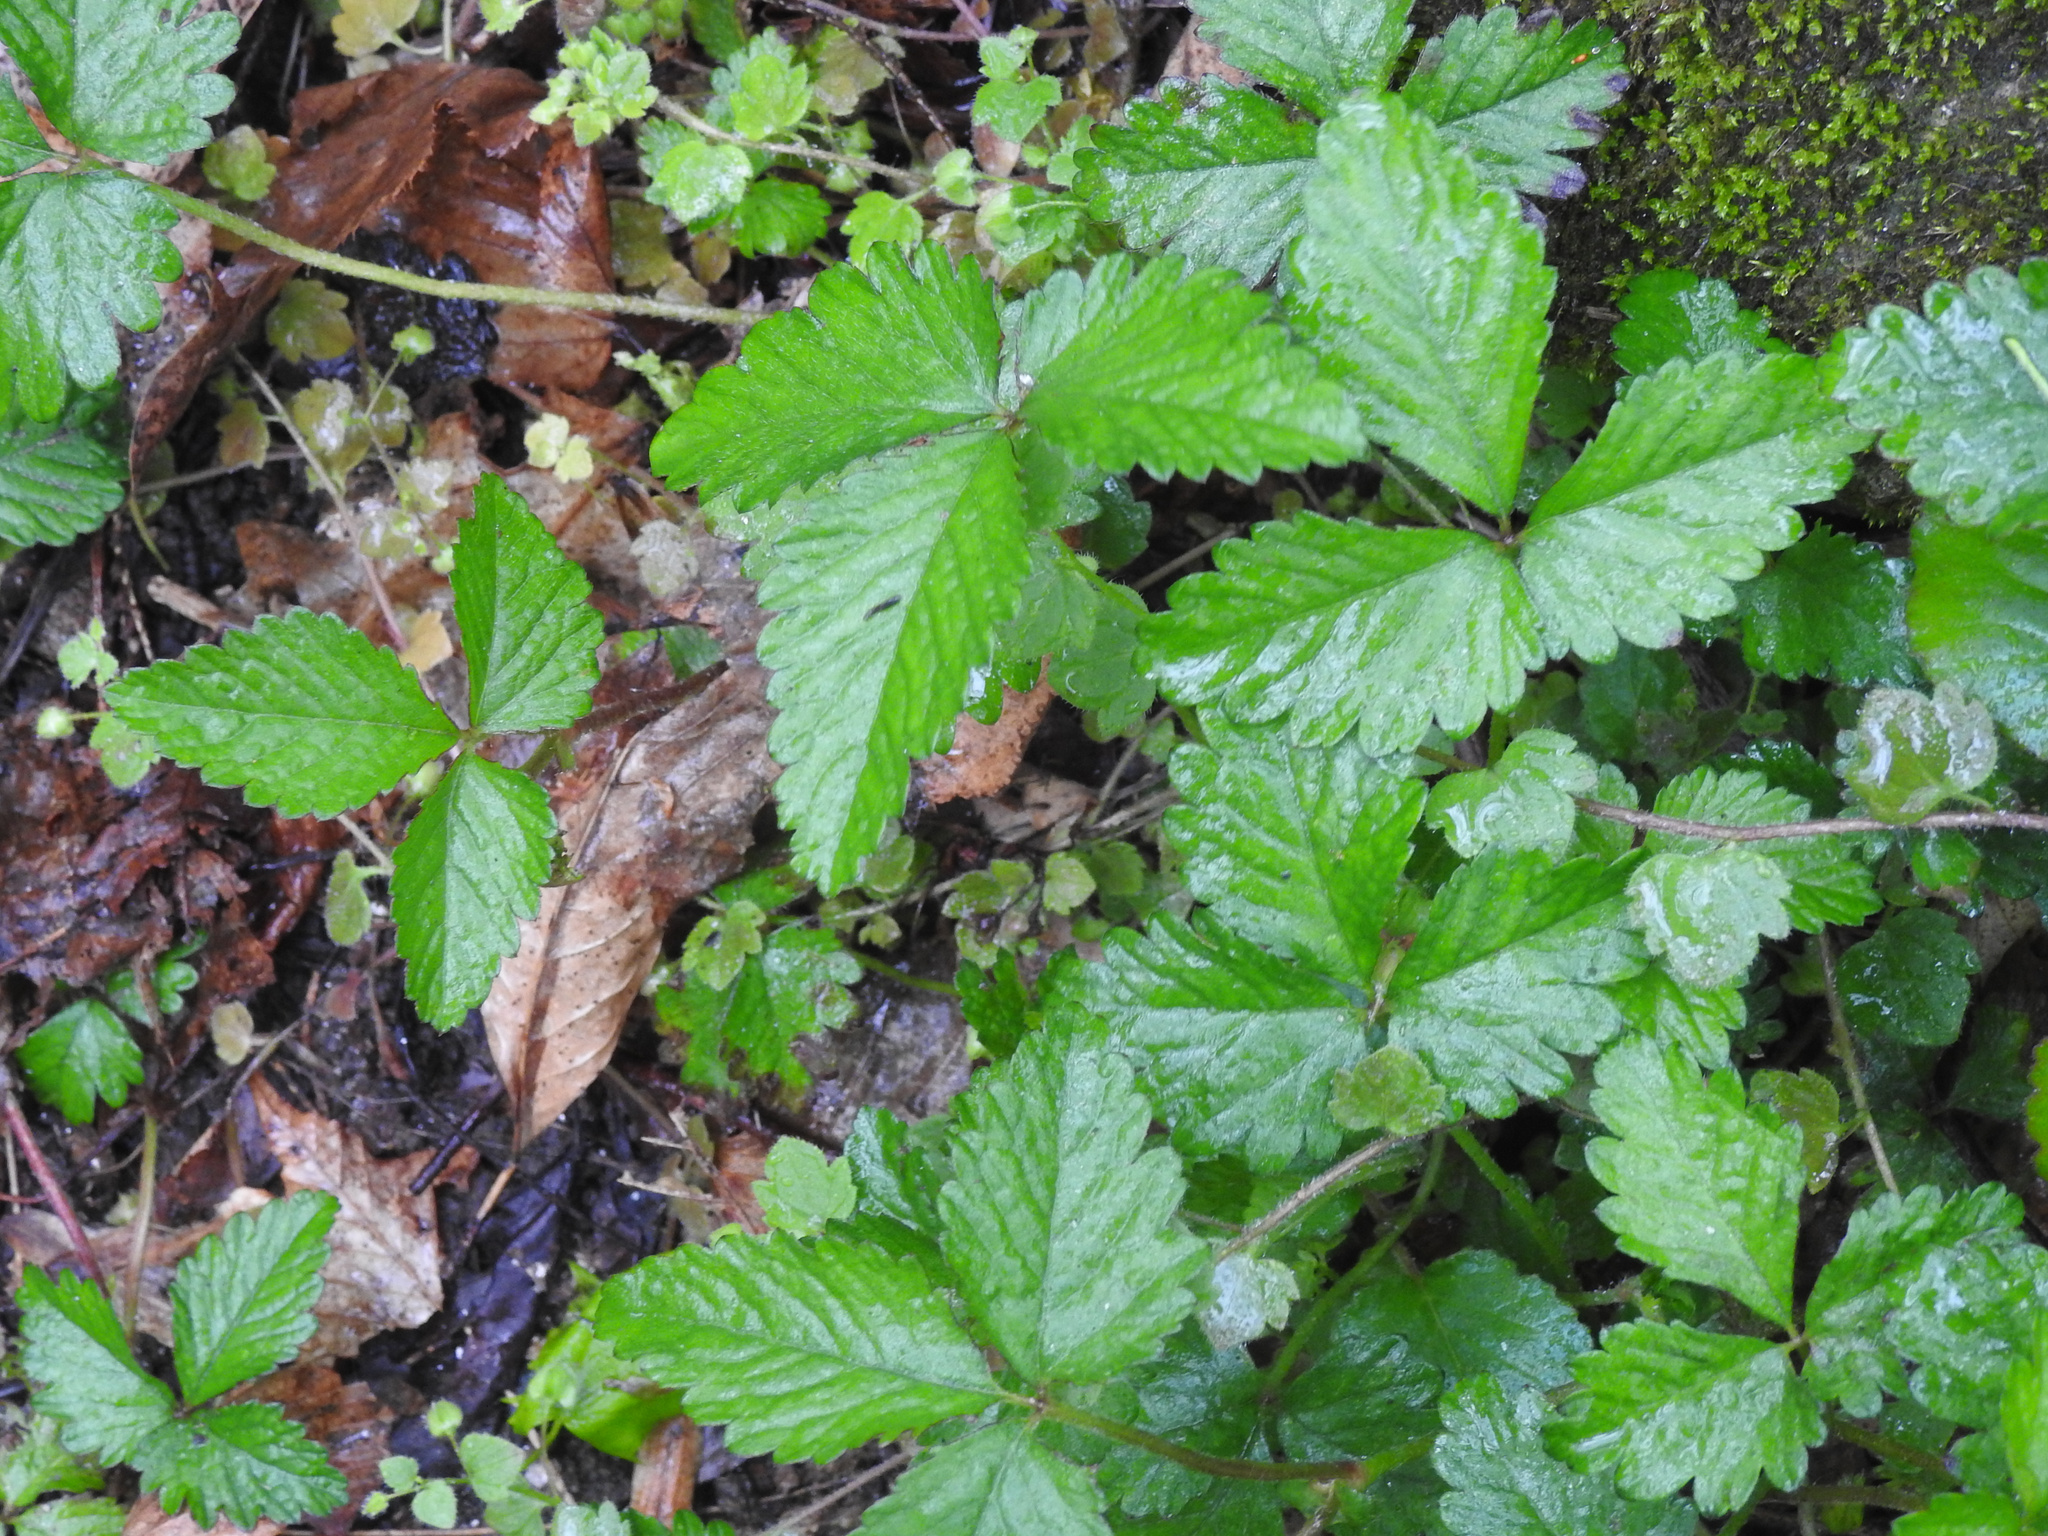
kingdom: Plantae
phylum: Tracheophyta
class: Magnoliopsida
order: Rosales
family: Rosaceae
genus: Potentilla
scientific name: Potentilla indica
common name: Yellow-flowered strawberry
